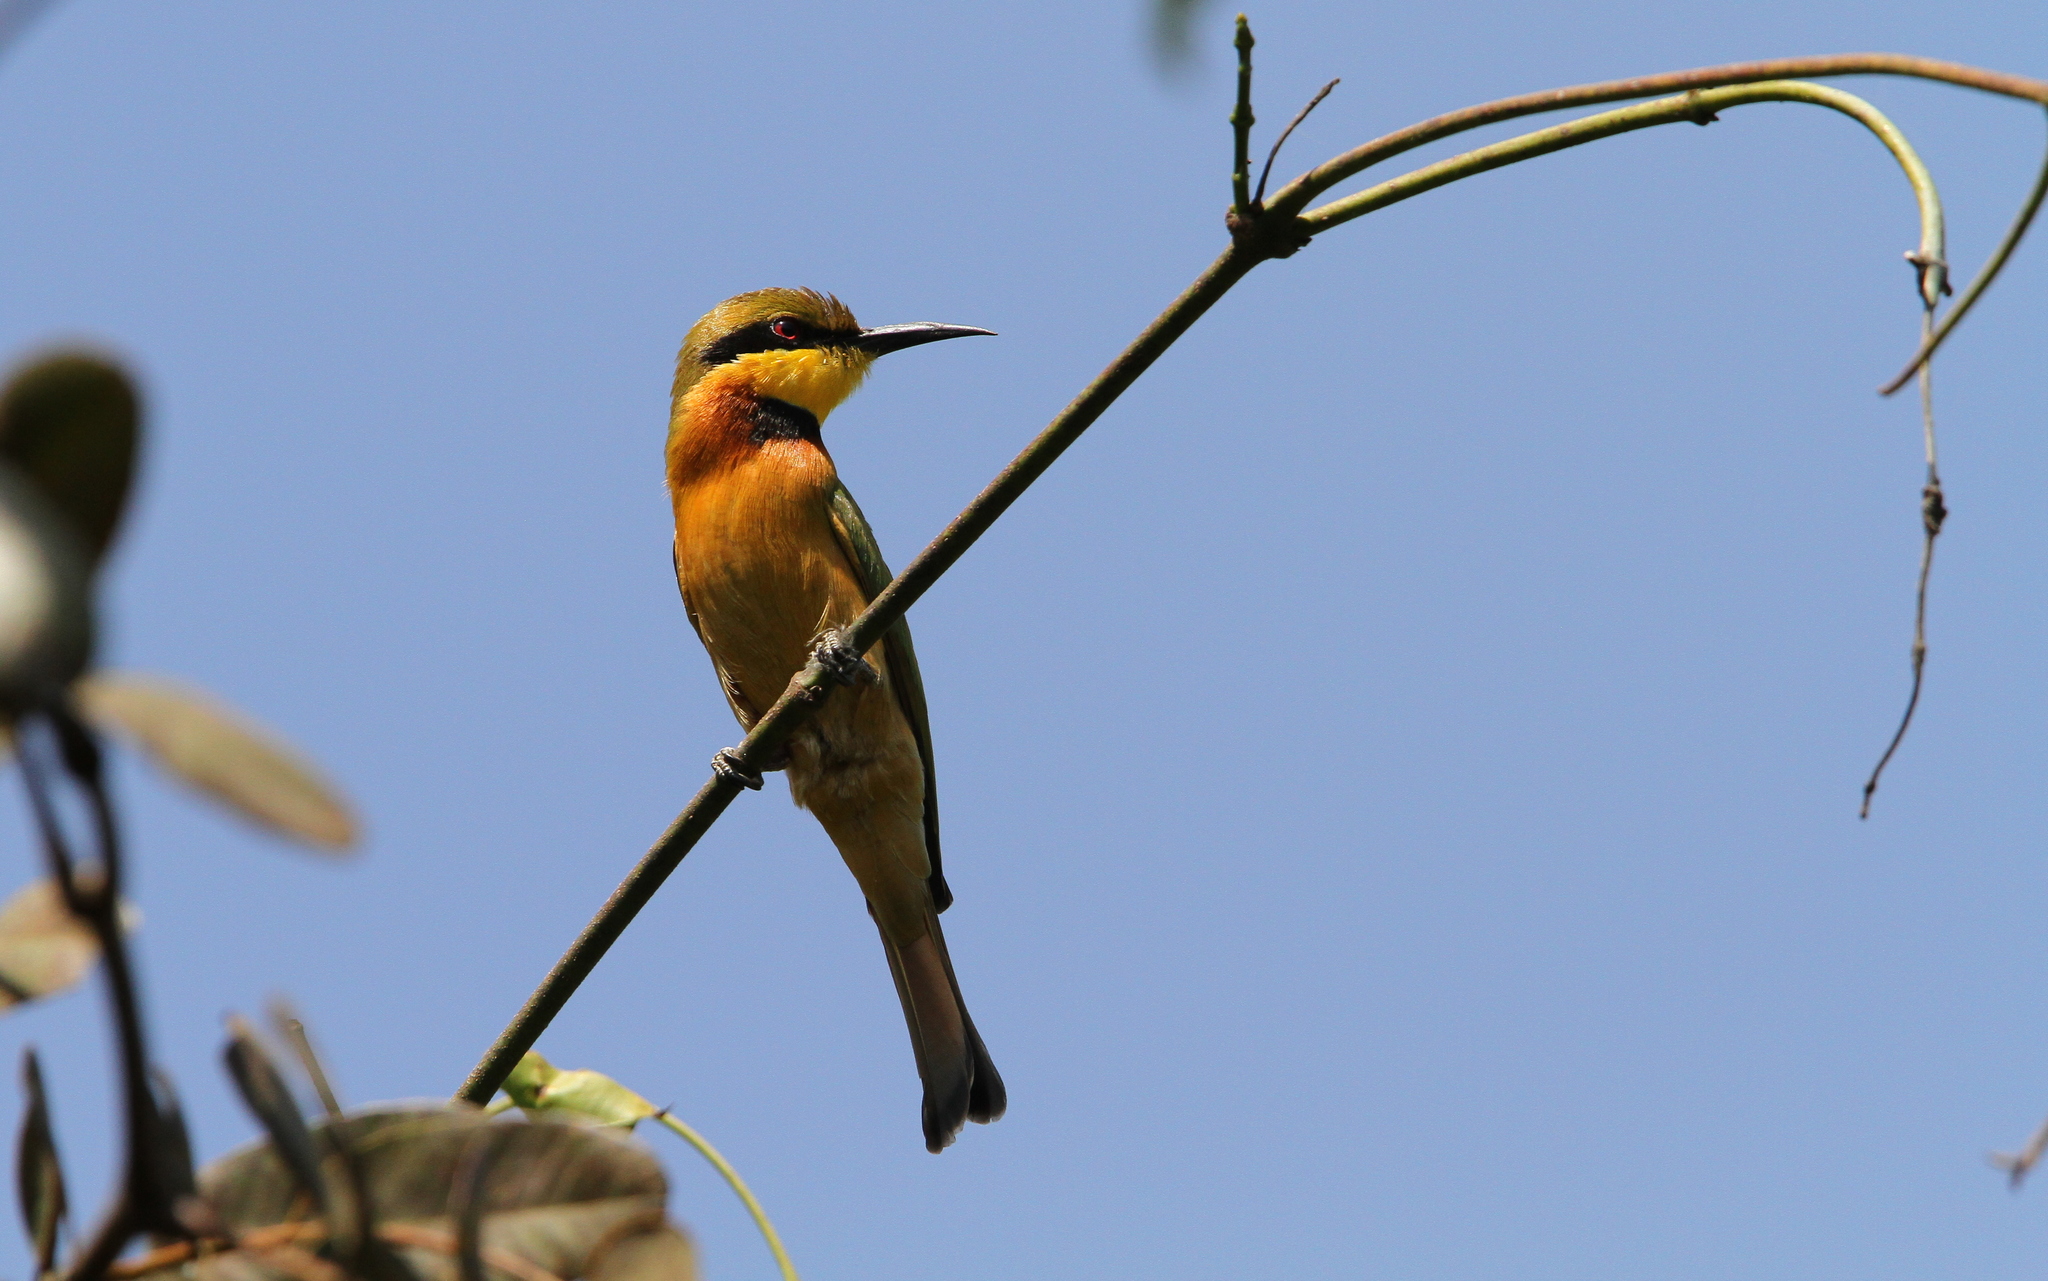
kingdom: Animalia
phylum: Chordata
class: Aves
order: Coraciiformes
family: Meropidae
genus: Merops
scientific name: Merops pusillus
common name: Little bee-eater
